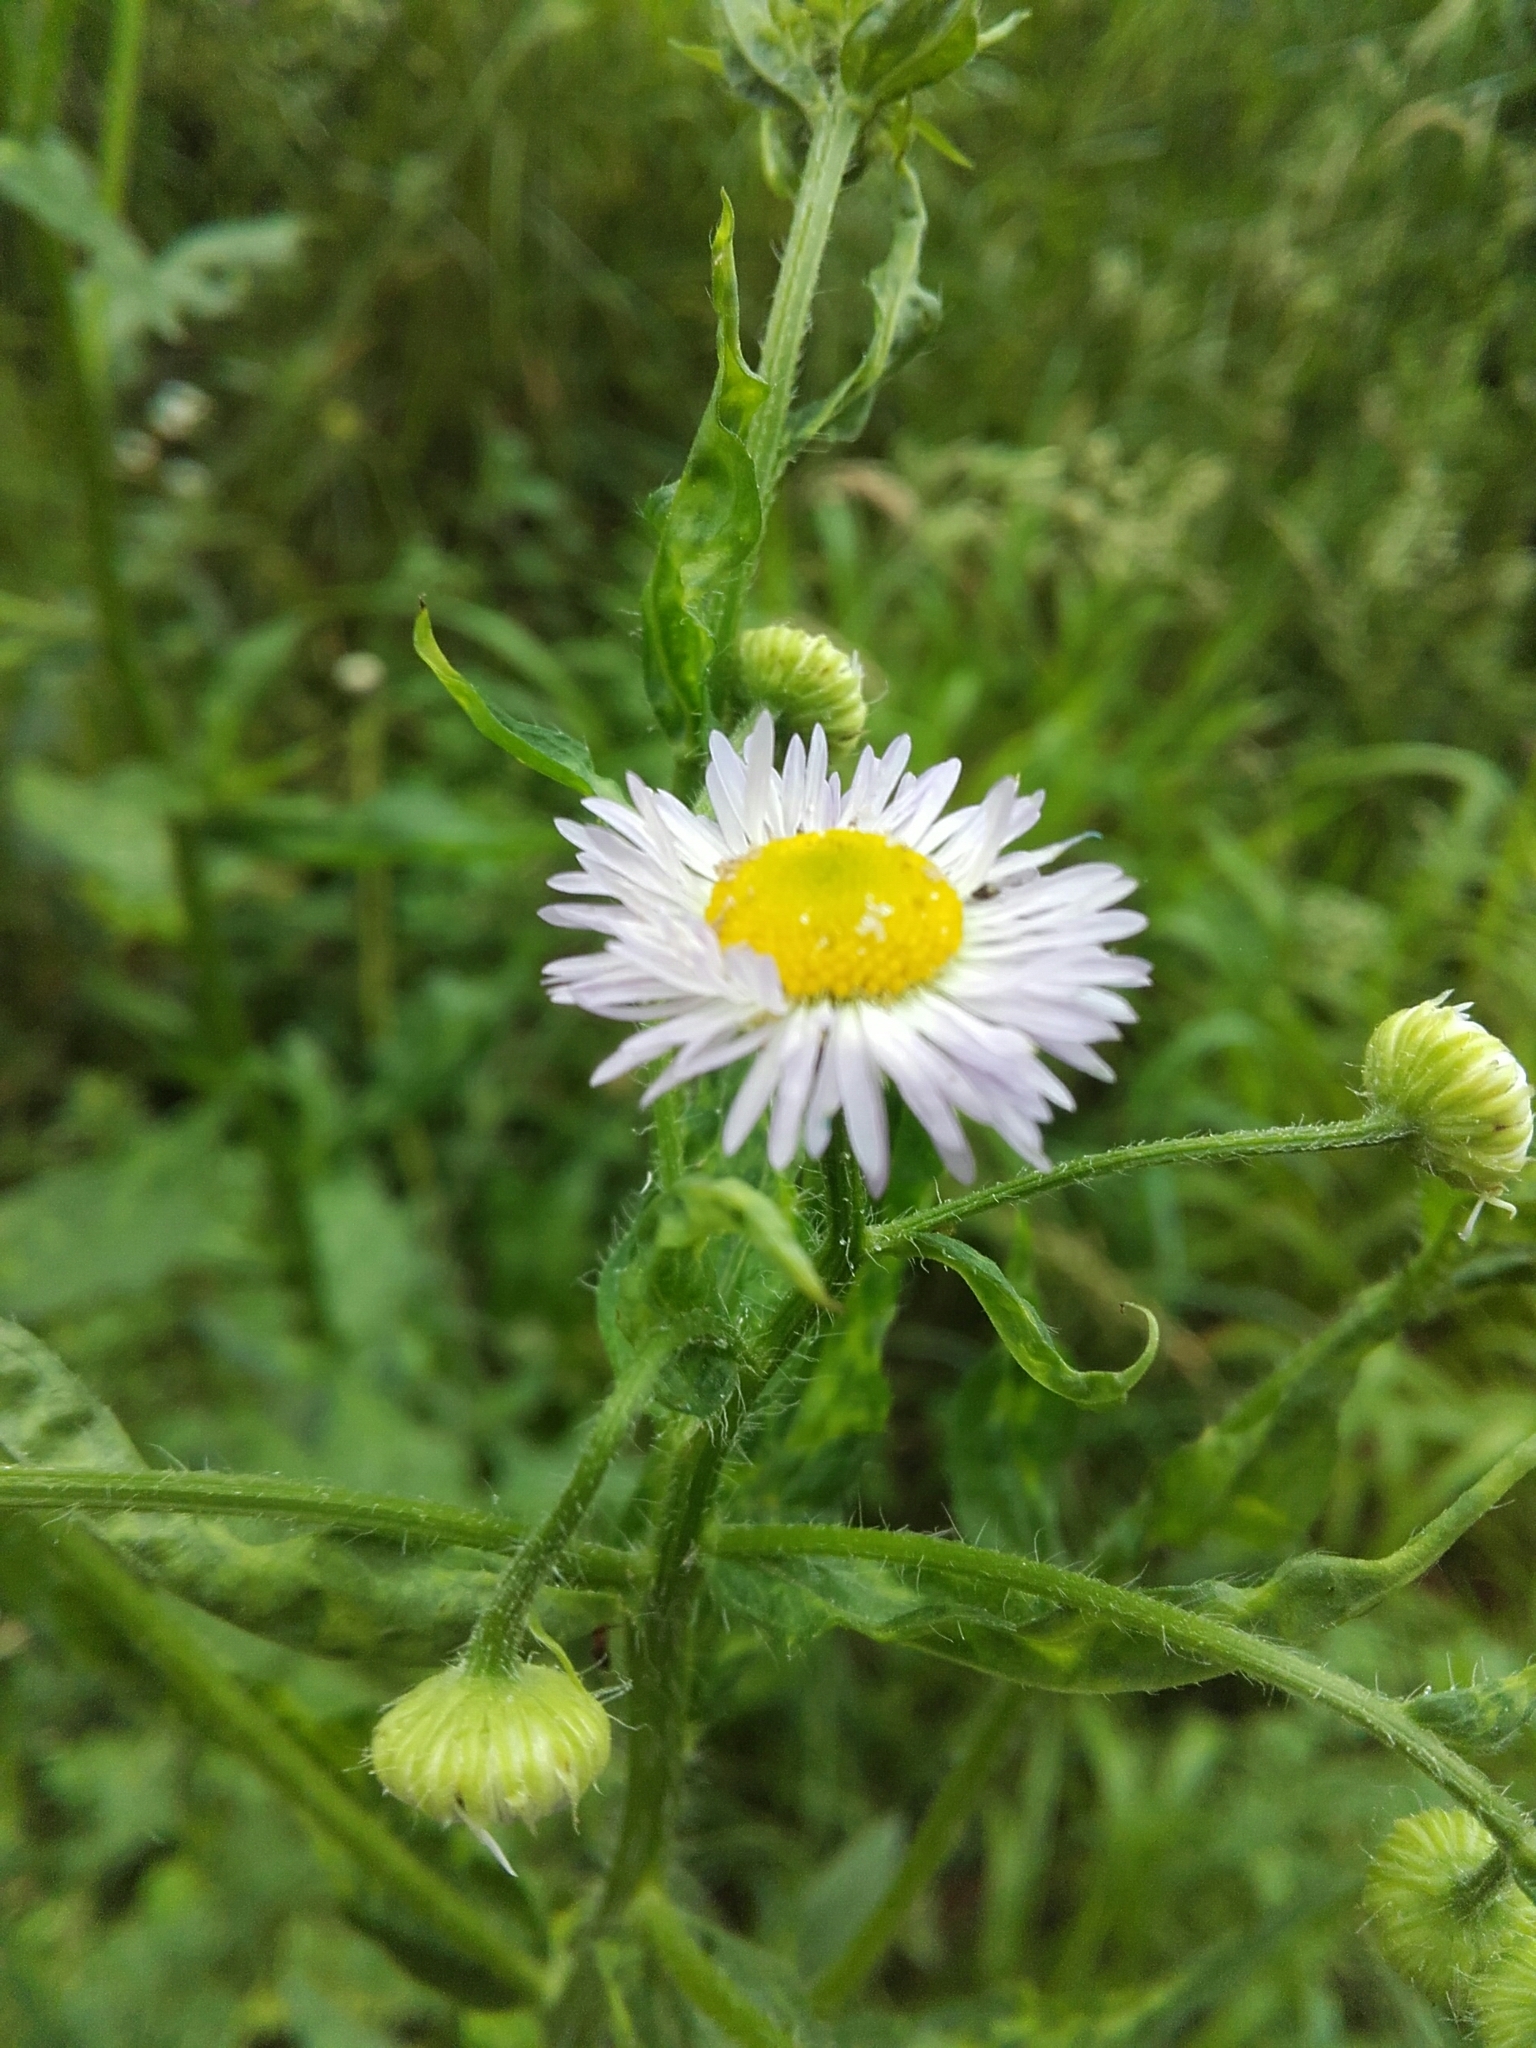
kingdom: Plantae
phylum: Tracheophyta
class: Magnoliopsida
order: Asterales
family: Asteraceae
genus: Erigeron
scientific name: Erigeron annuus
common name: Tall fleabane
